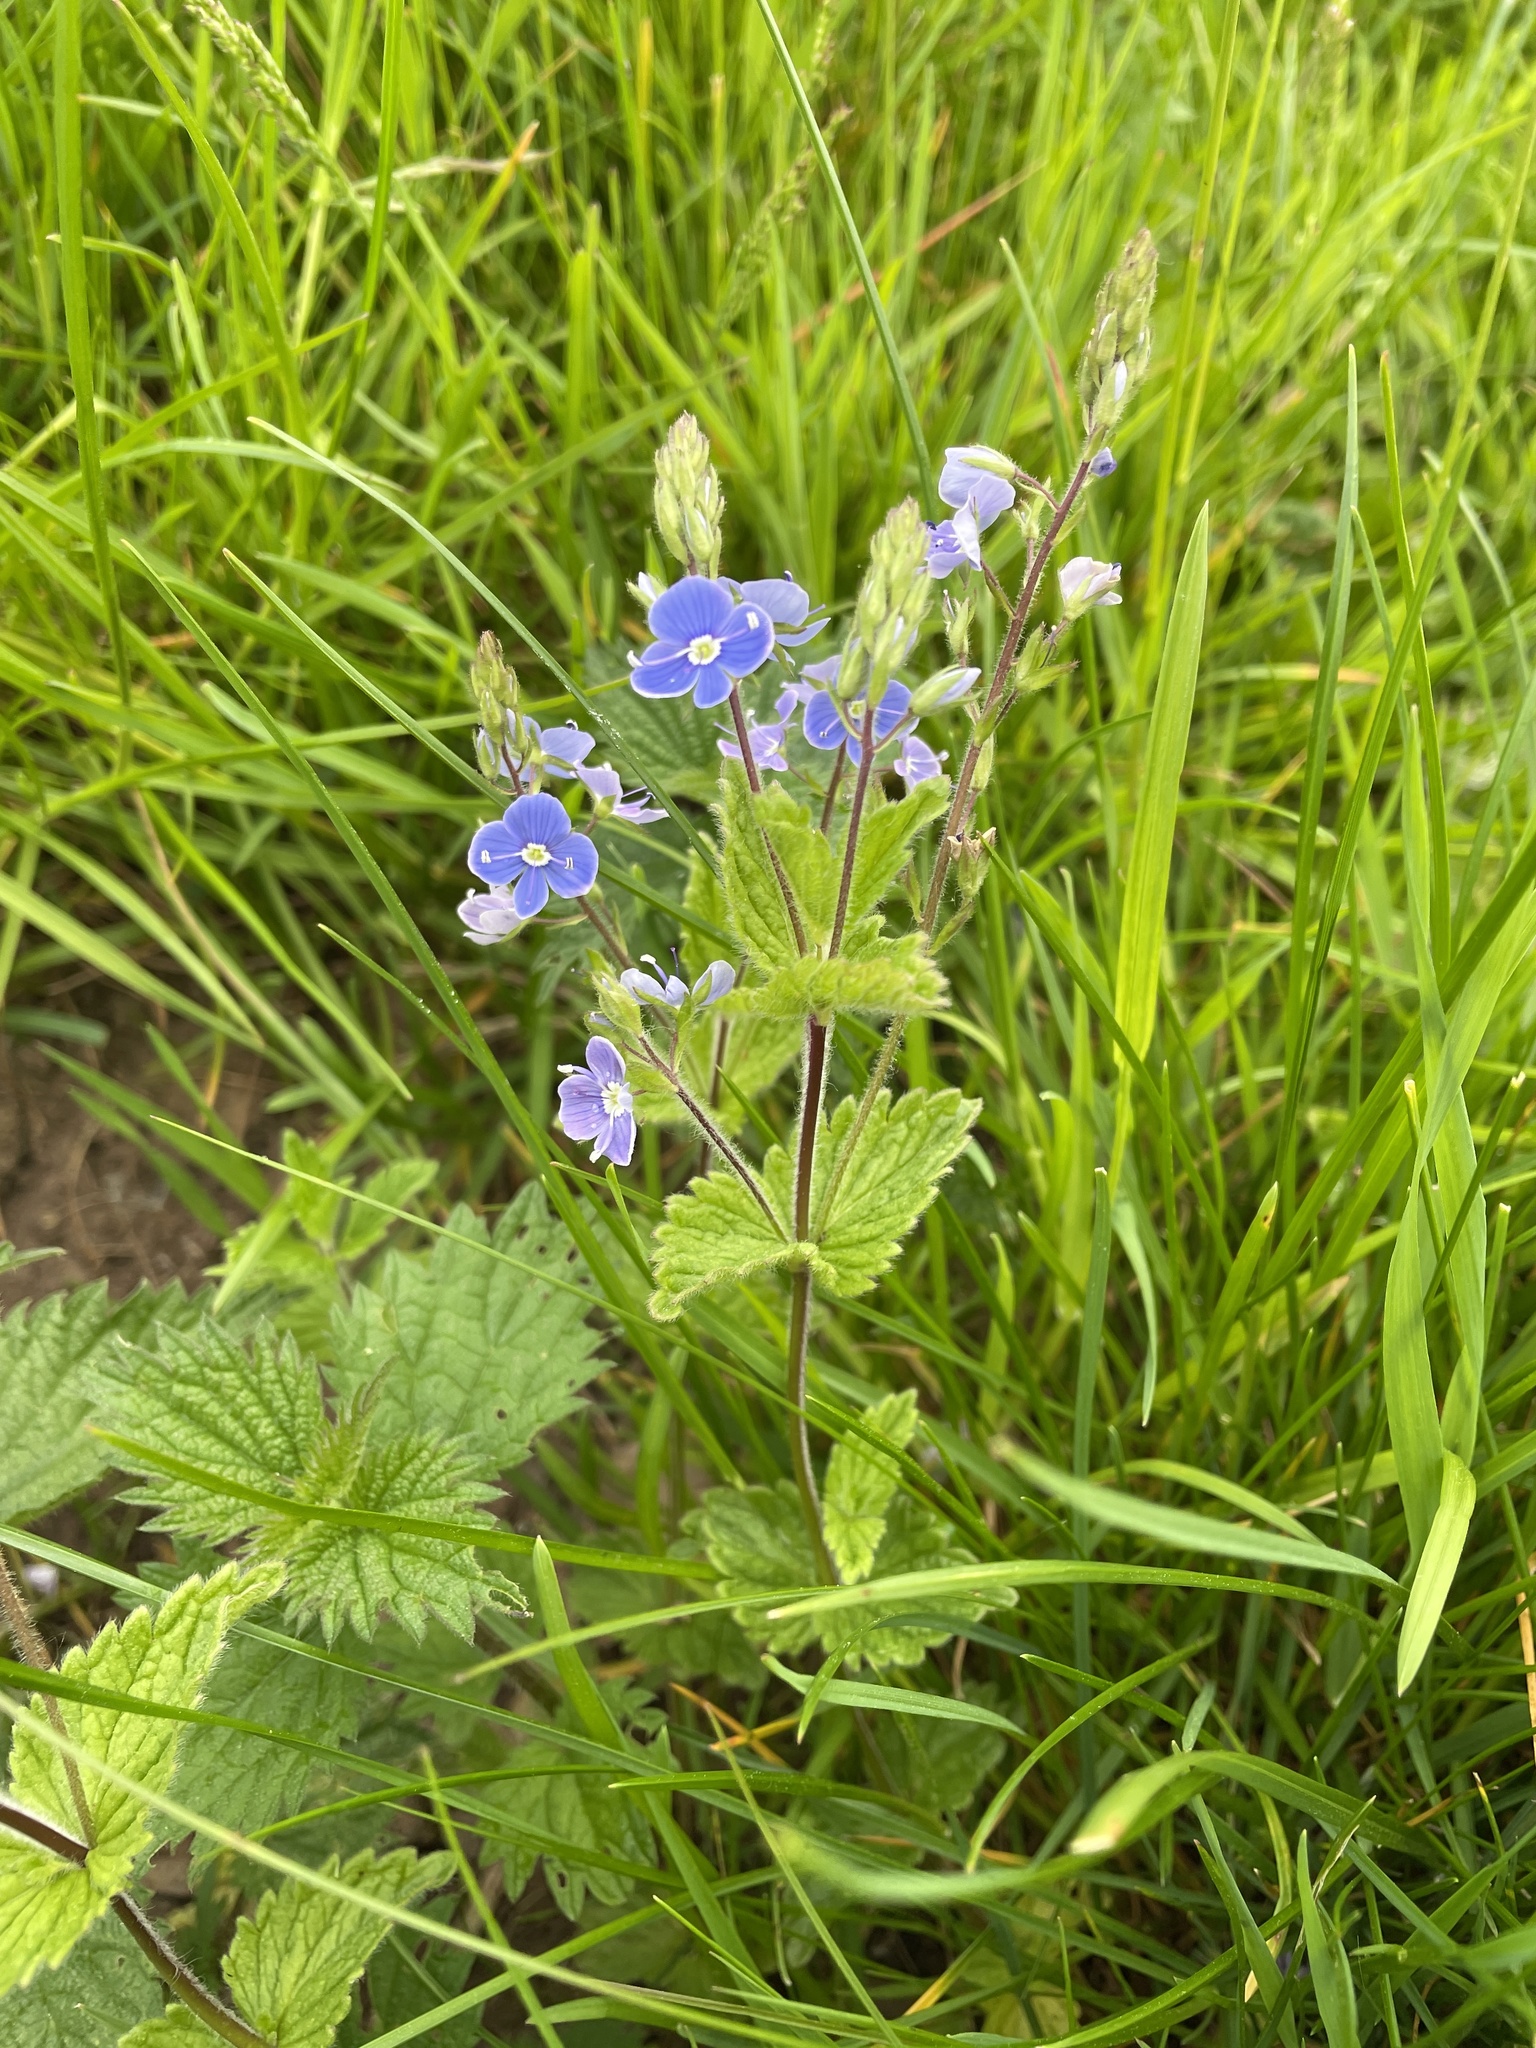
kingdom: Plantae
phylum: Tracheophyta
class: Magnoliopsida
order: Lamiales
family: Plantaginaceae
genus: Veronica
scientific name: Veronica chamaedrys
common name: Germander speedwell
